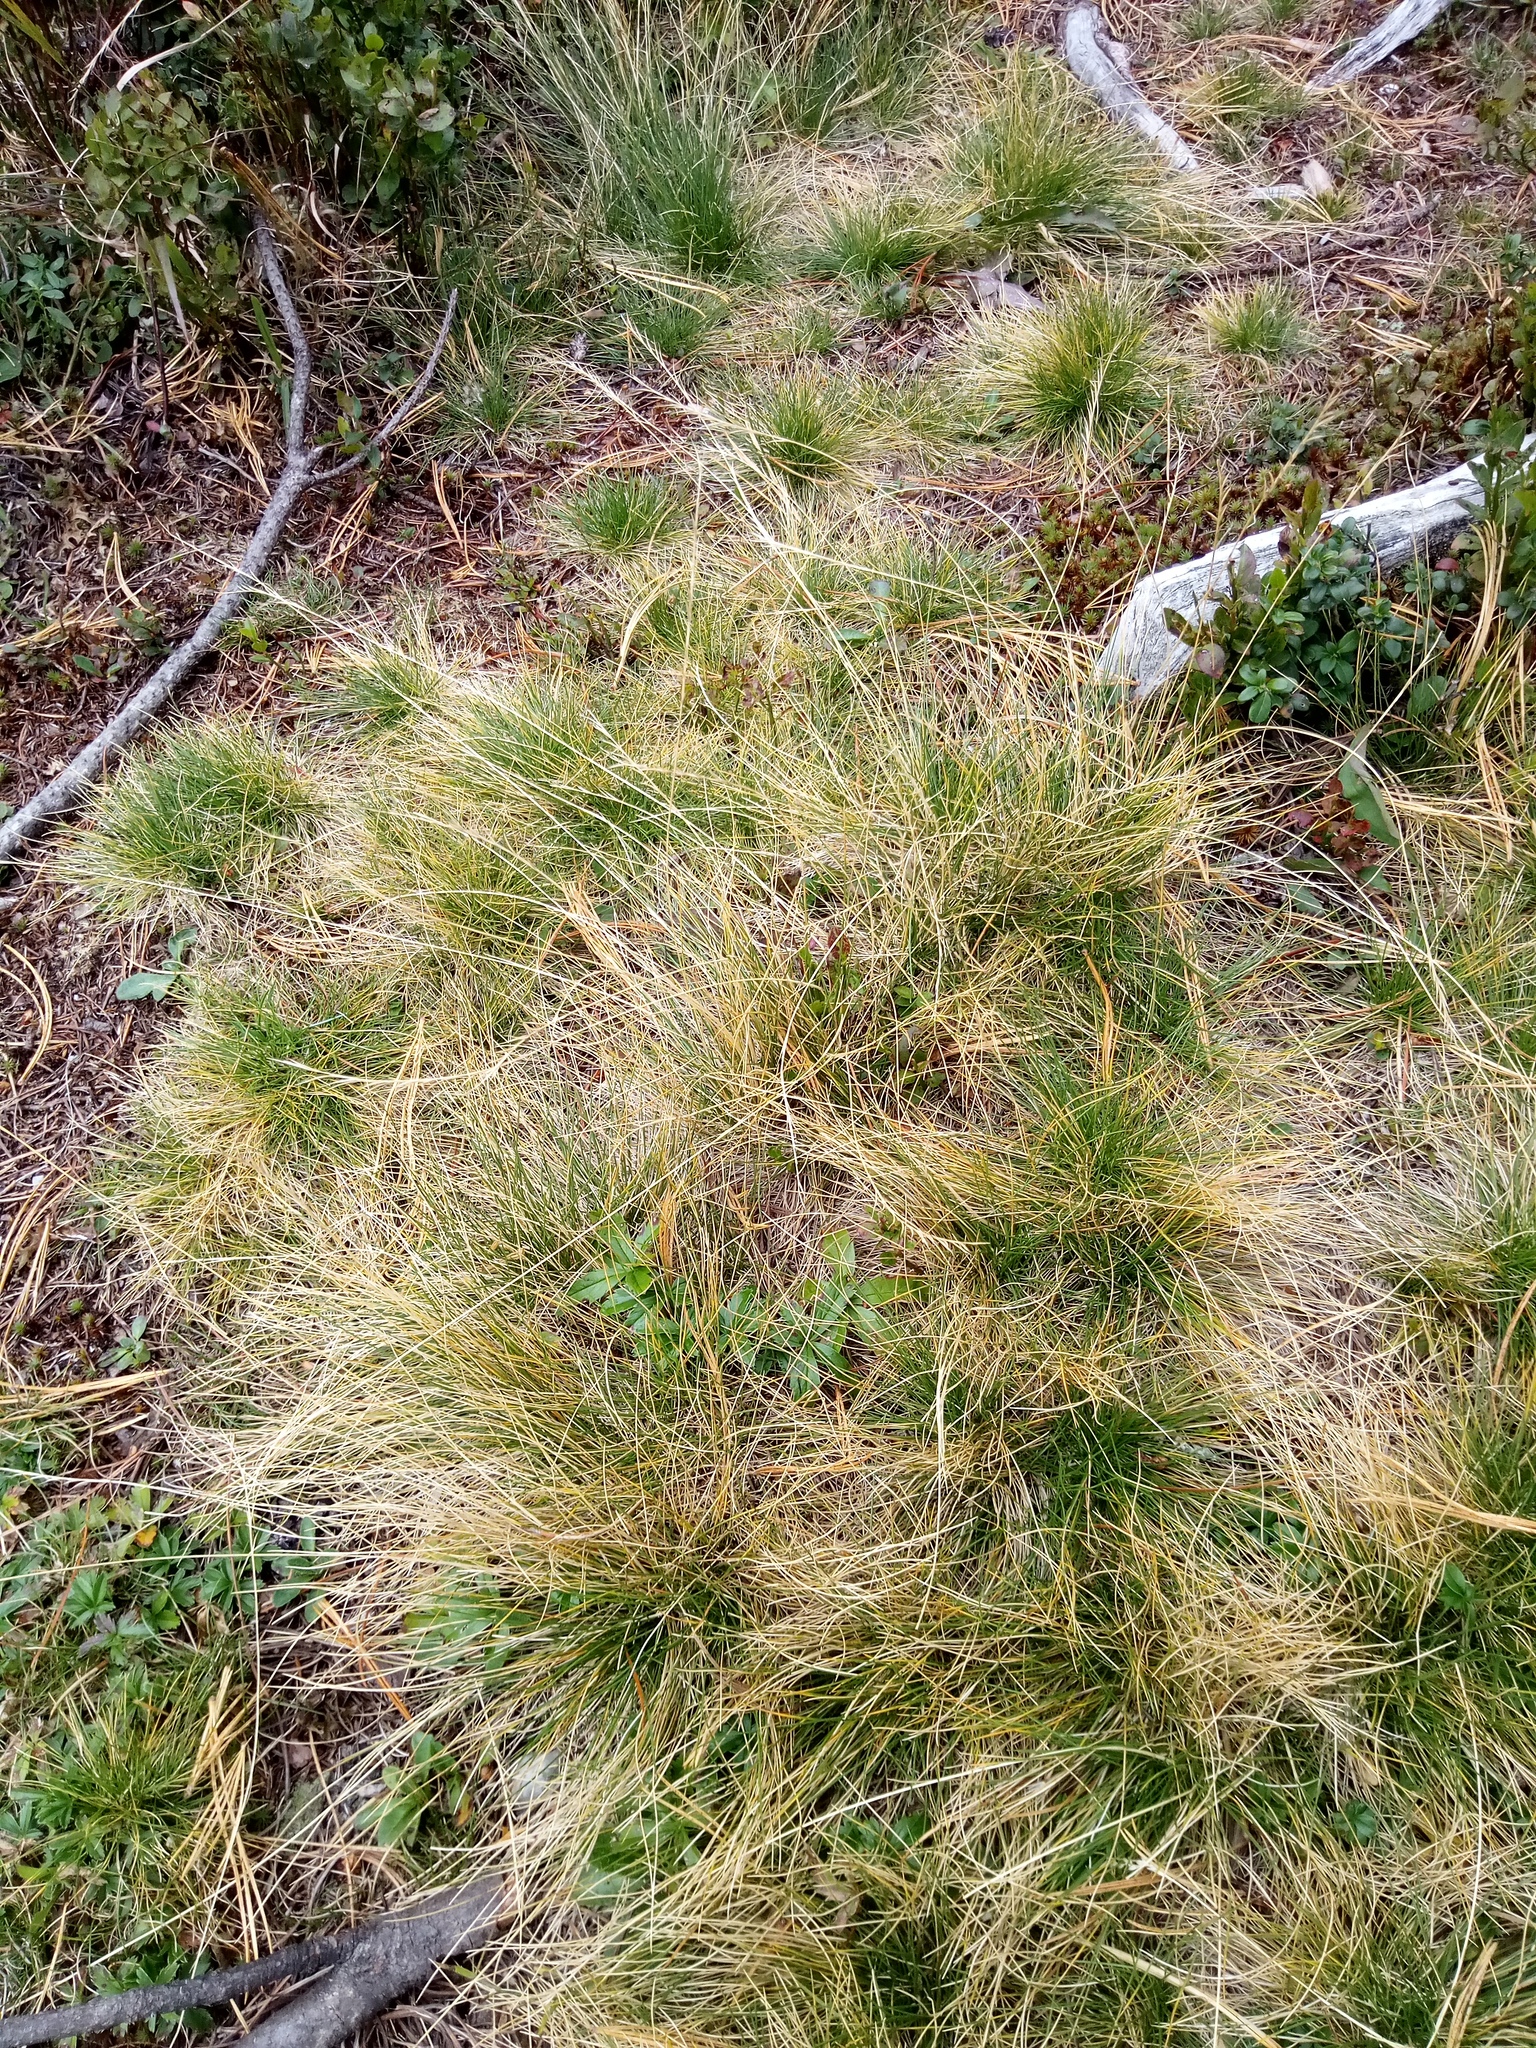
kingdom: Plantae
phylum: Tracheophyta
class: Liliopsida
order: Poales
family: Poaceae
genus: Nardus
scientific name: Nardus stricta
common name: Mat-grass
